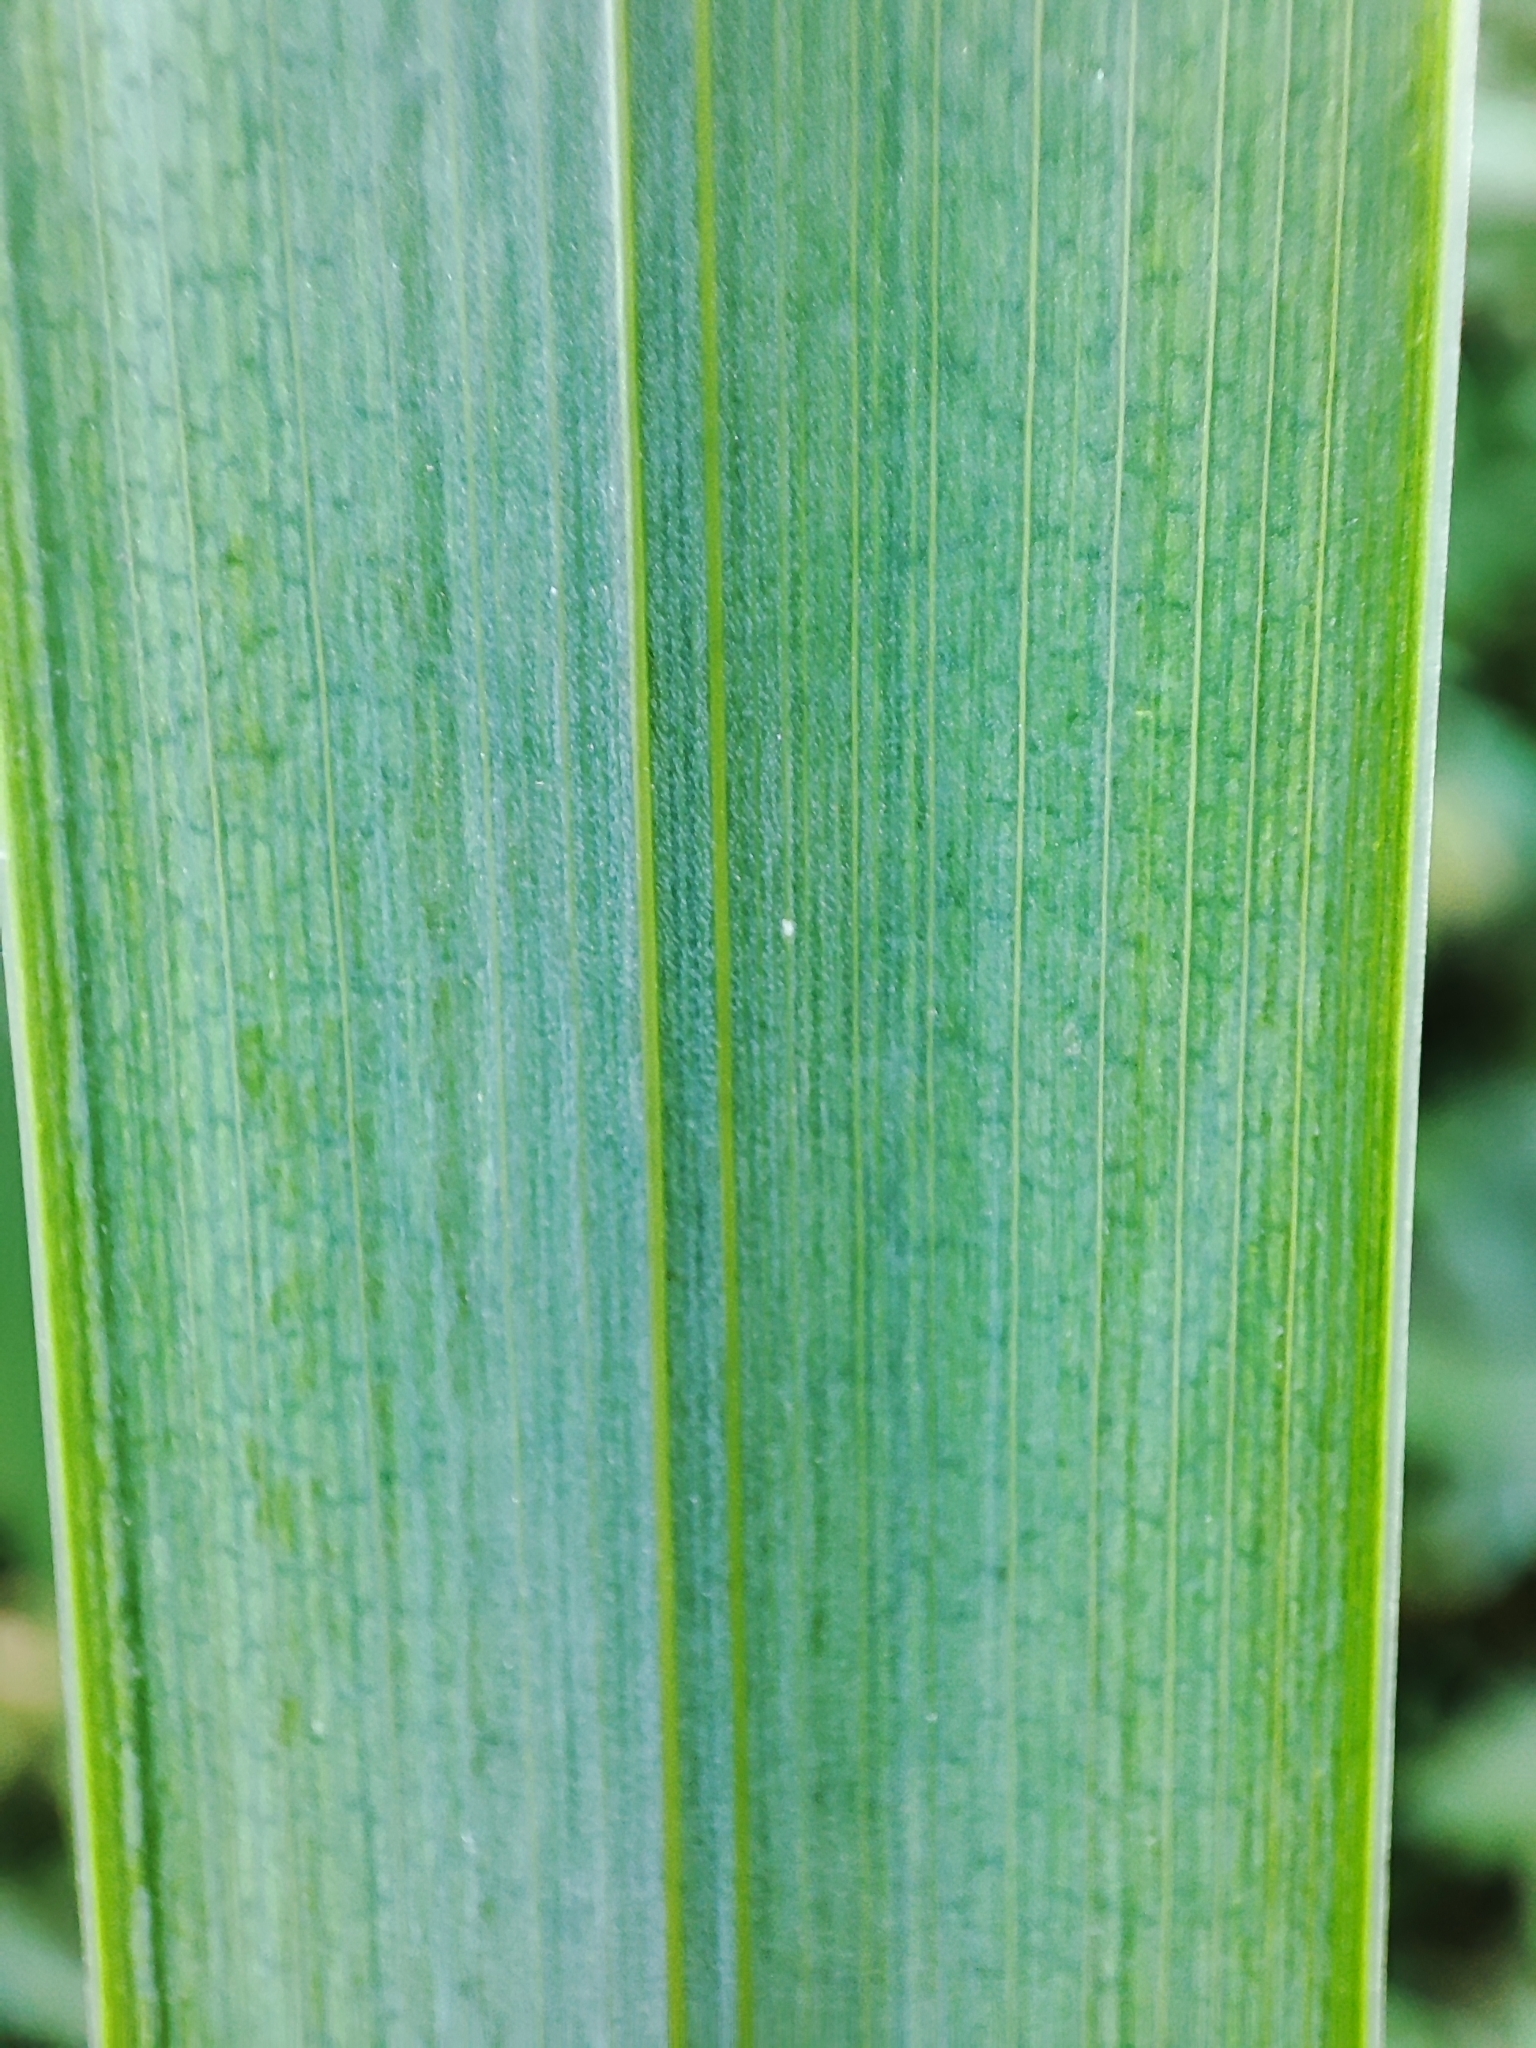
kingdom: Plantae
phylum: Tracheophyta
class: Liliopsida
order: Asparagales
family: Iridaceae
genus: Iris
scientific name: Iris pseudacorus
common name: Yellow flag
